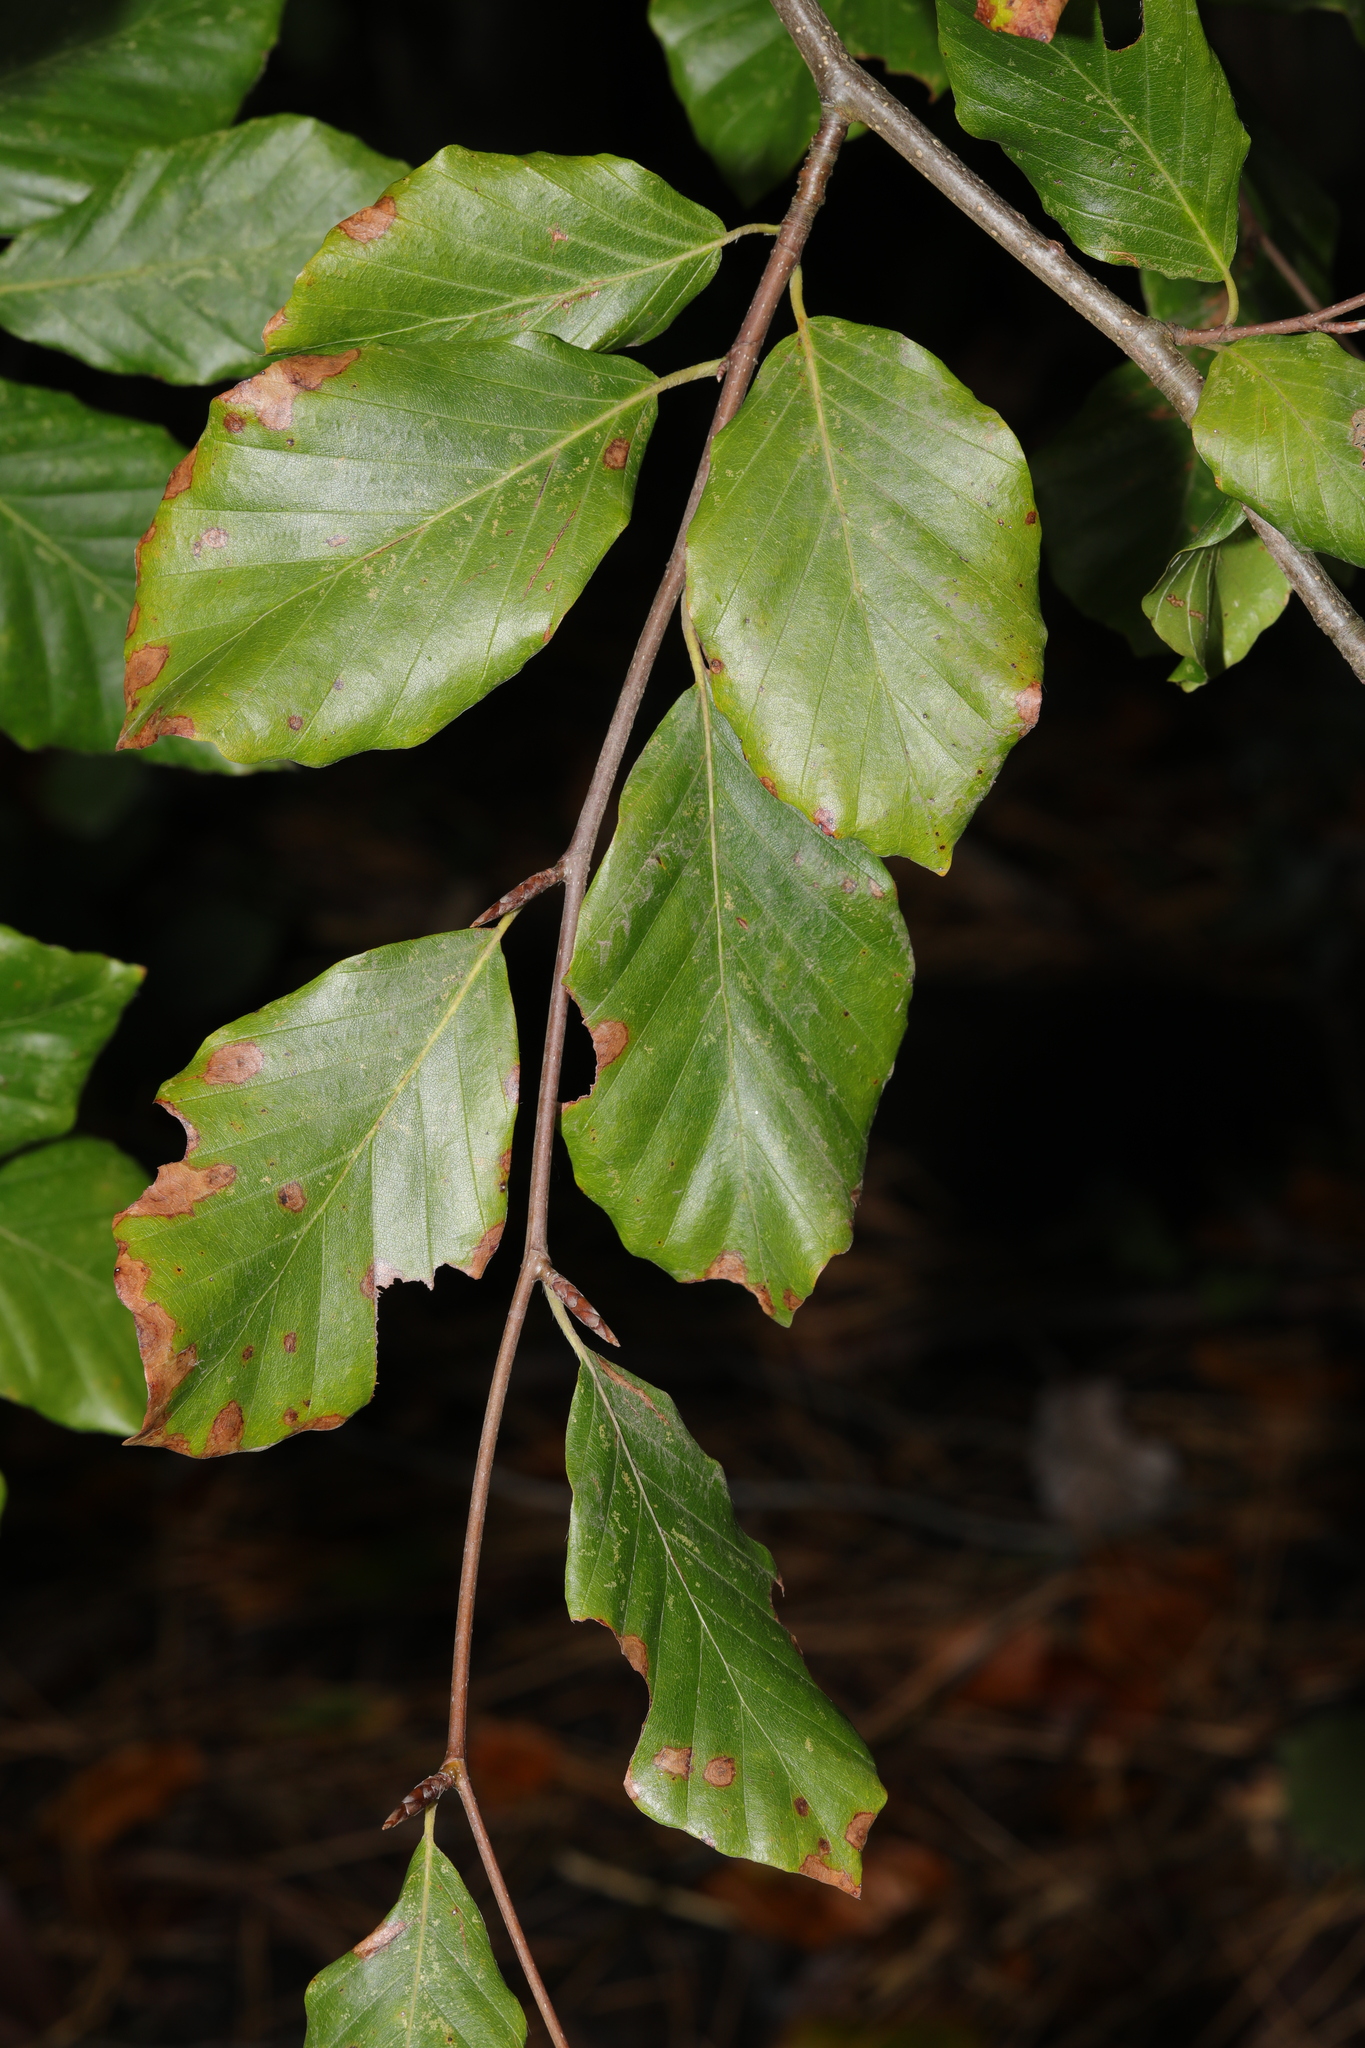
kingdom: Plantae
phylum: Tracheophyta
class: Magnoliopsida
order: Fagales
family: Fagaceae
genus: Fagus
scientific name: Fagus sylvatica
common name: Beech
